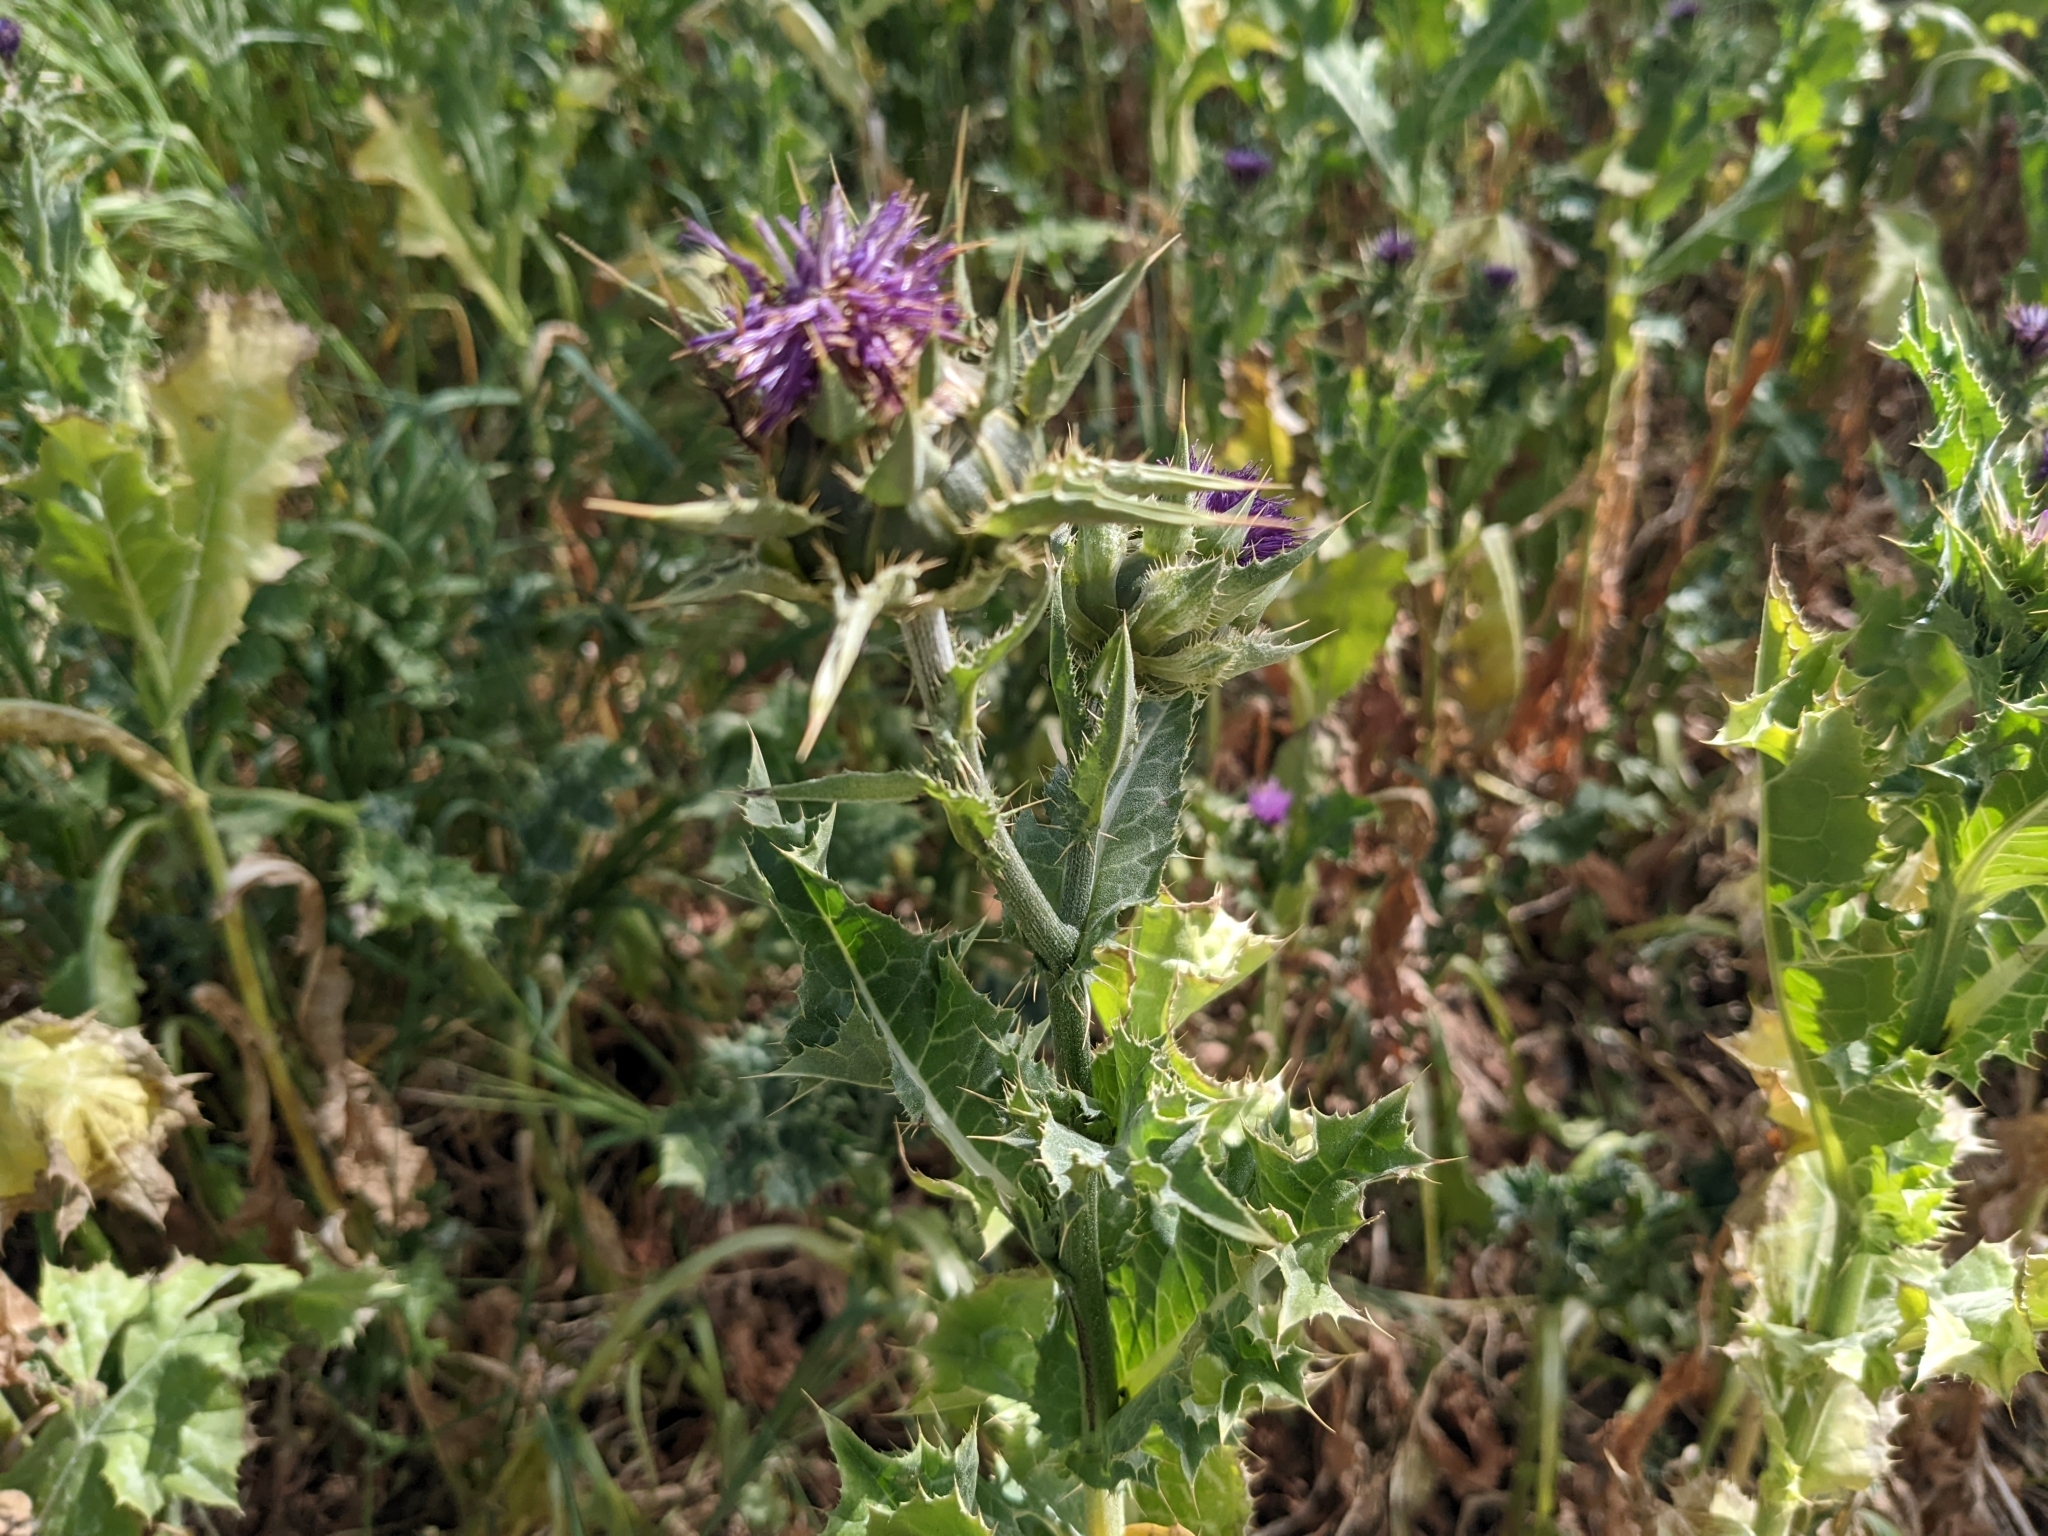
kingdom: Plantae
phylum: Tracheophyta
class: Magnoliopsida
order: Asterales
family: Asteraceae
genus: Silybum
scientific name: Silybum marianum
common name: Milk thistle
